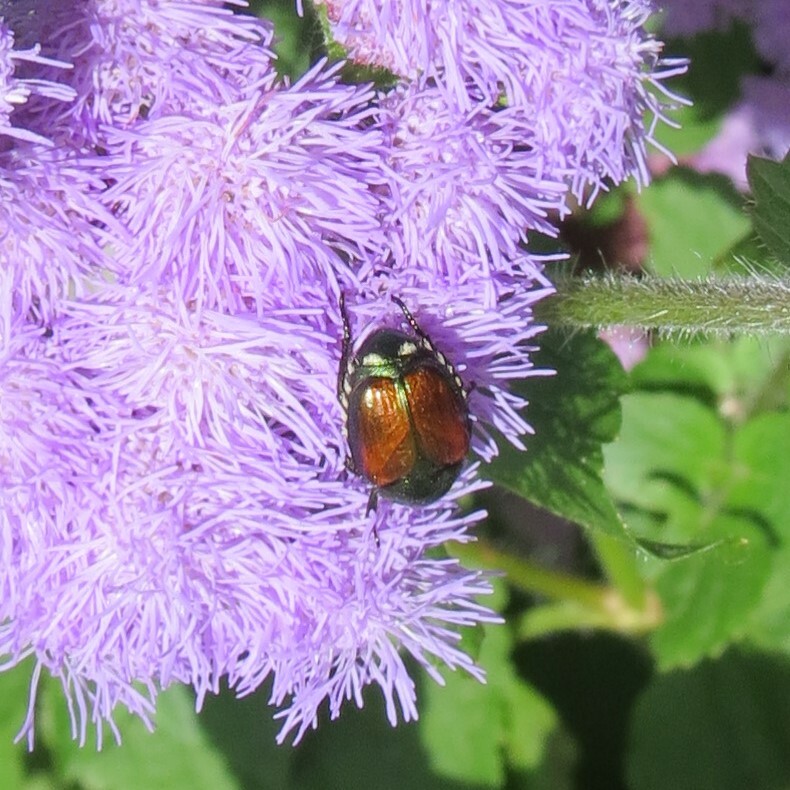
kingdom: Animalia
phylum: Arthropoda
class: Insecta
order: Coleoptera
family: Scarabaeidae
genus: Popillia
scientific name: Popillia japonica
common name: Japanese beetle
